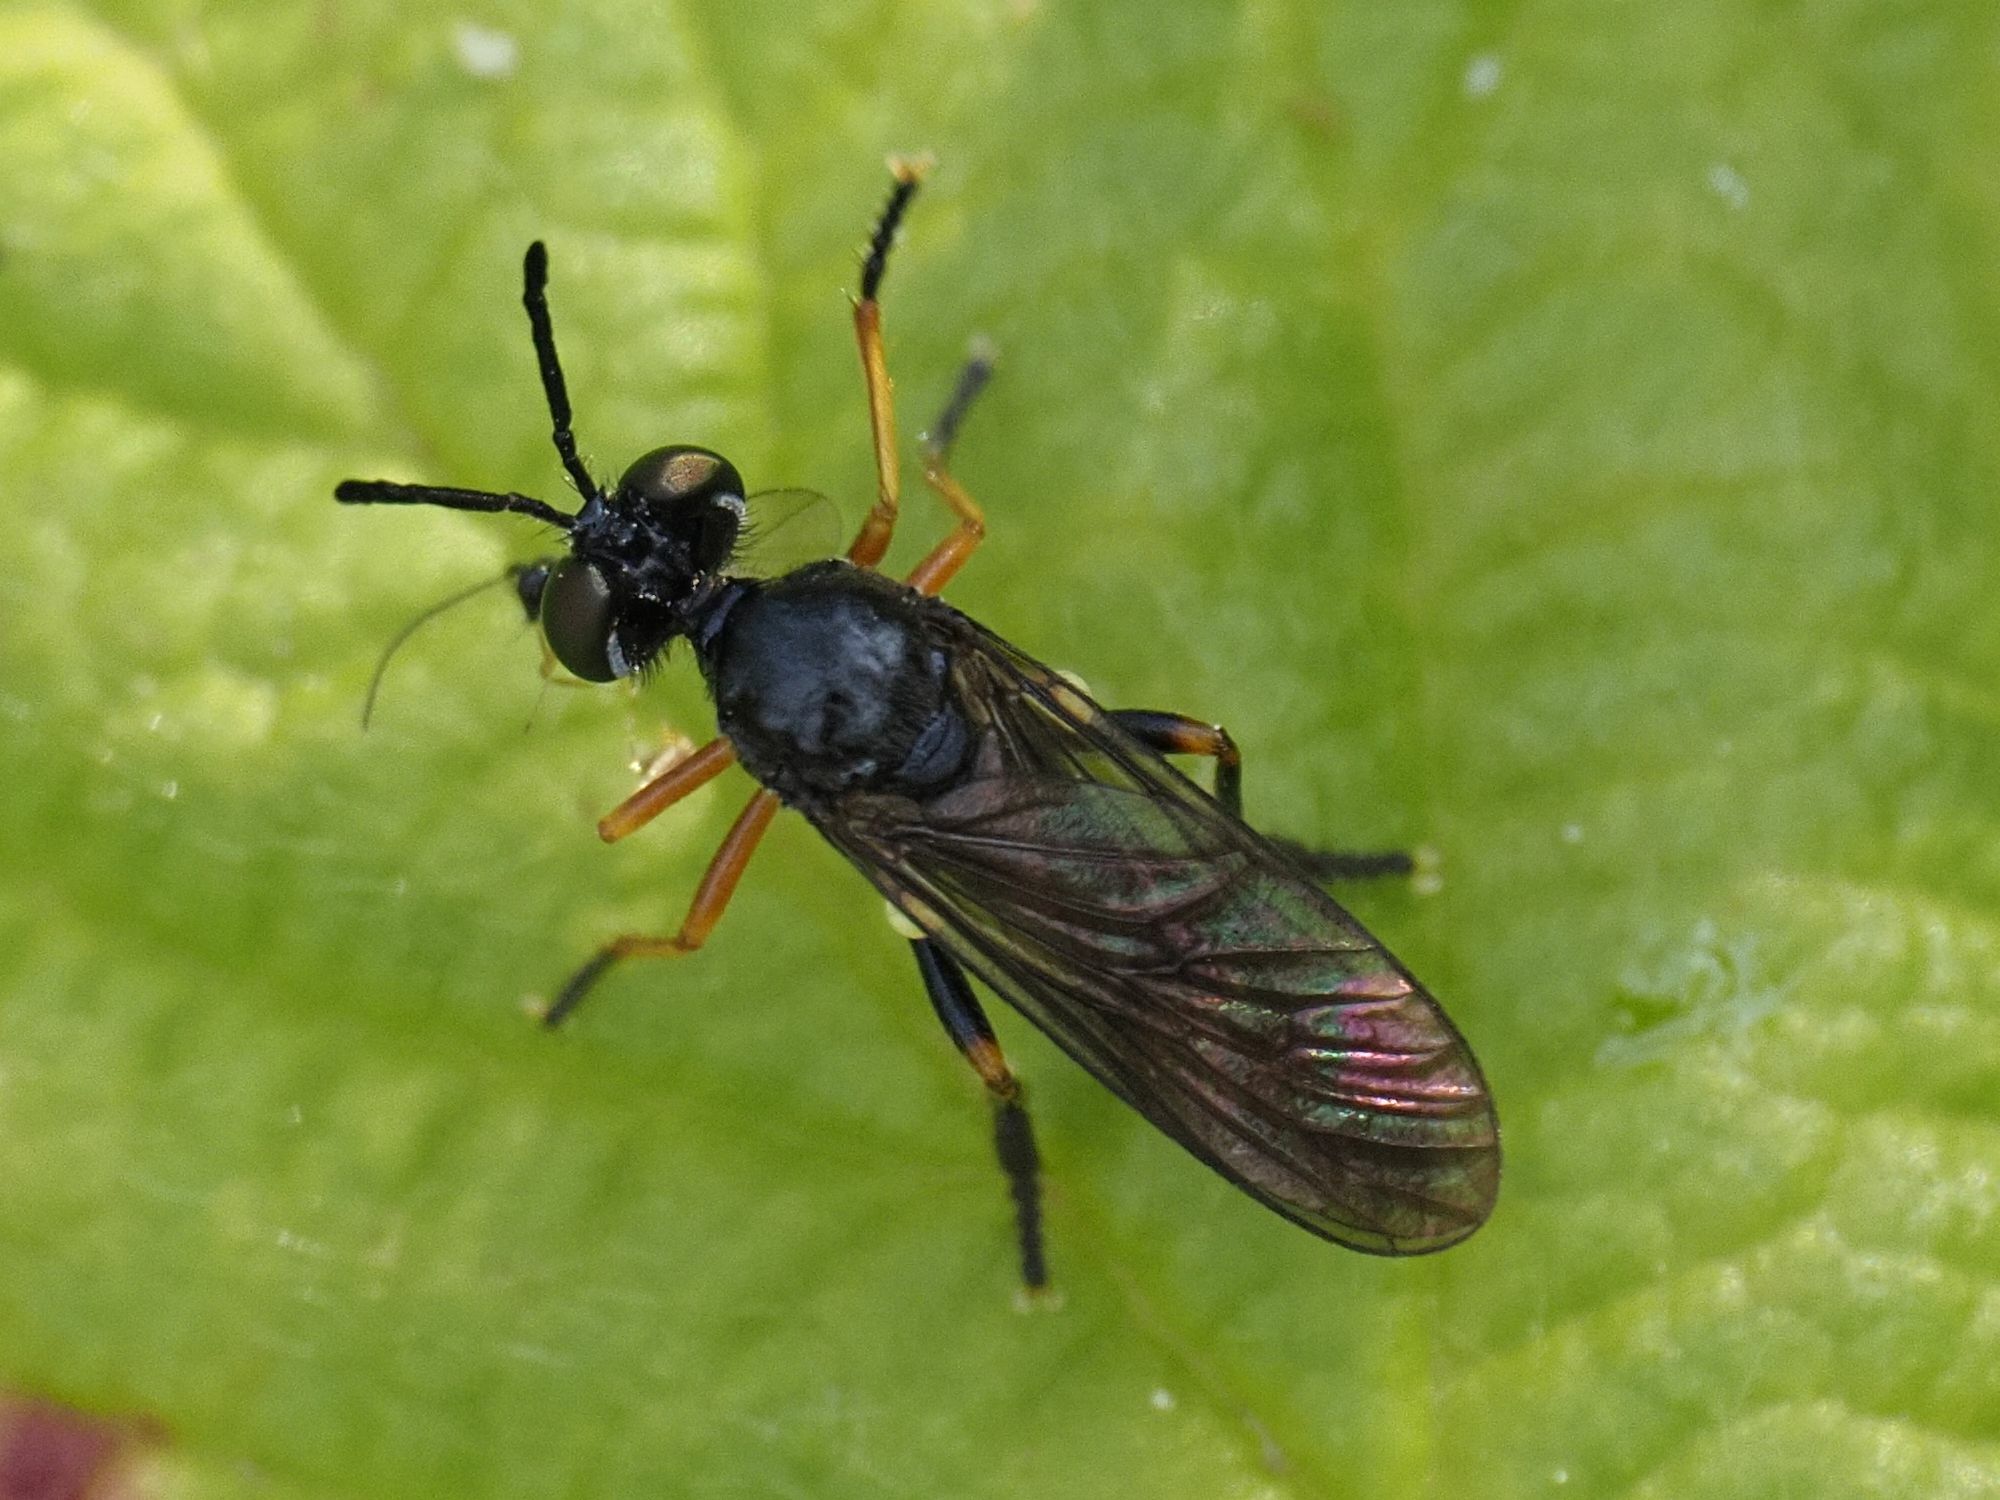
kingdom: Animalia
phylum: Arthropoda
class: Insecta
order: Diptera
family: Asilidae
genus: Dioctria
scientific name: Dioctria longicornis
